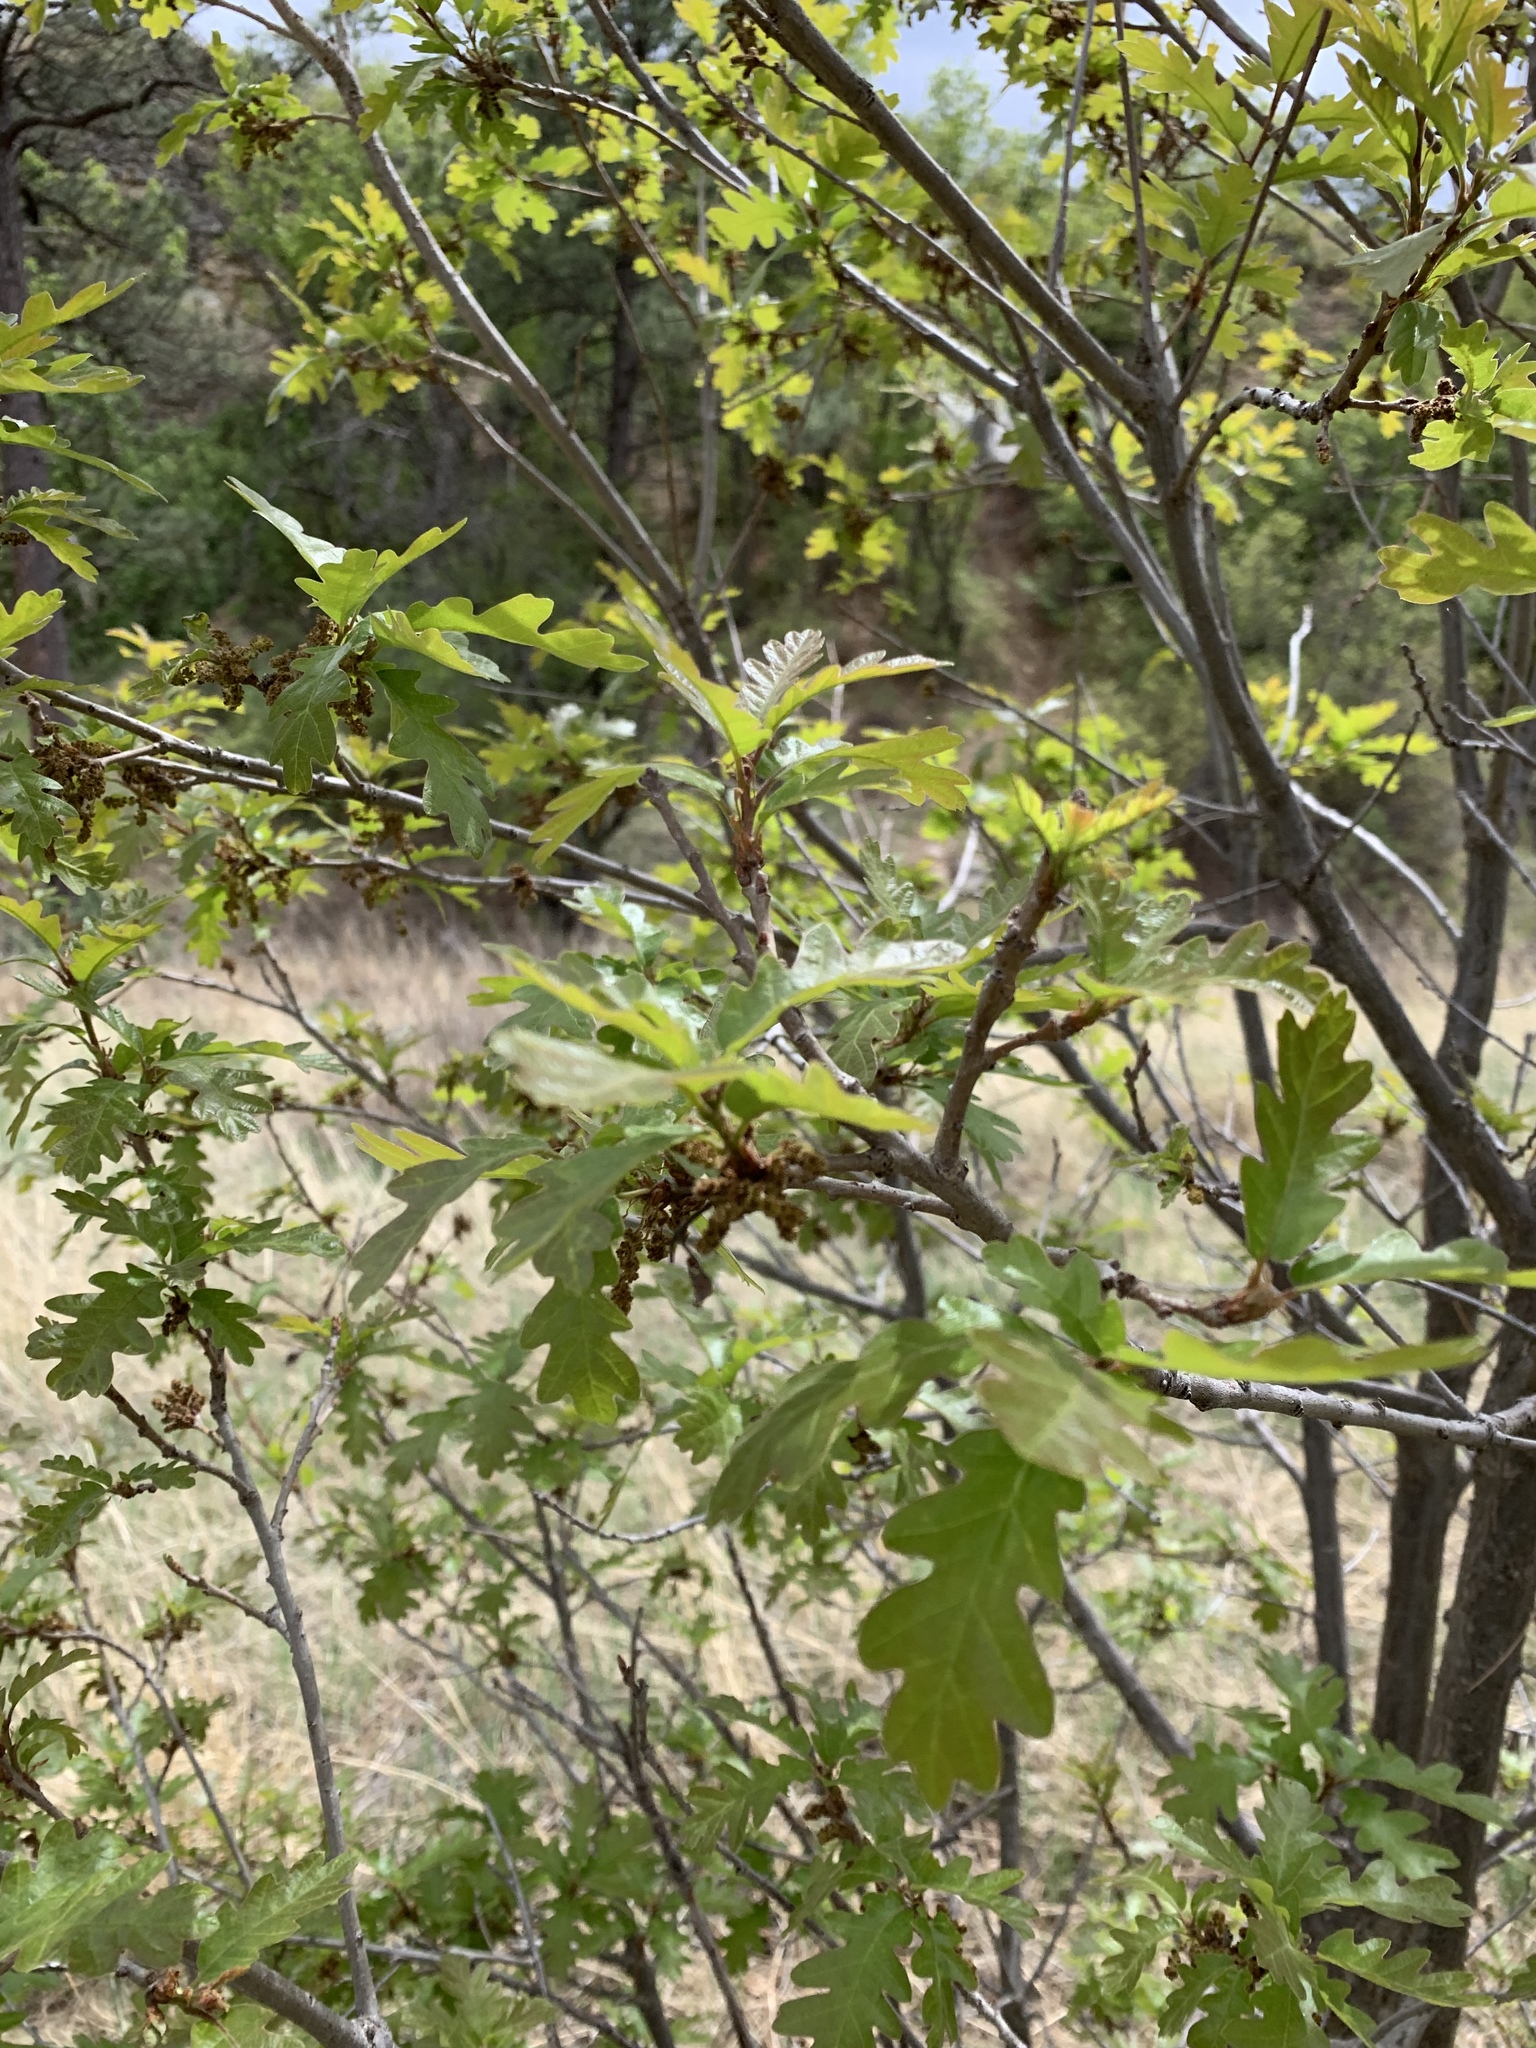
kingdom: Plantae
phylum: Tracheophyta
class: Magnoliopsida
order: Fagales
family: Fagaceae
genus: Quercus
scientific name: Quercus gambelii
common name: Gambel oak
